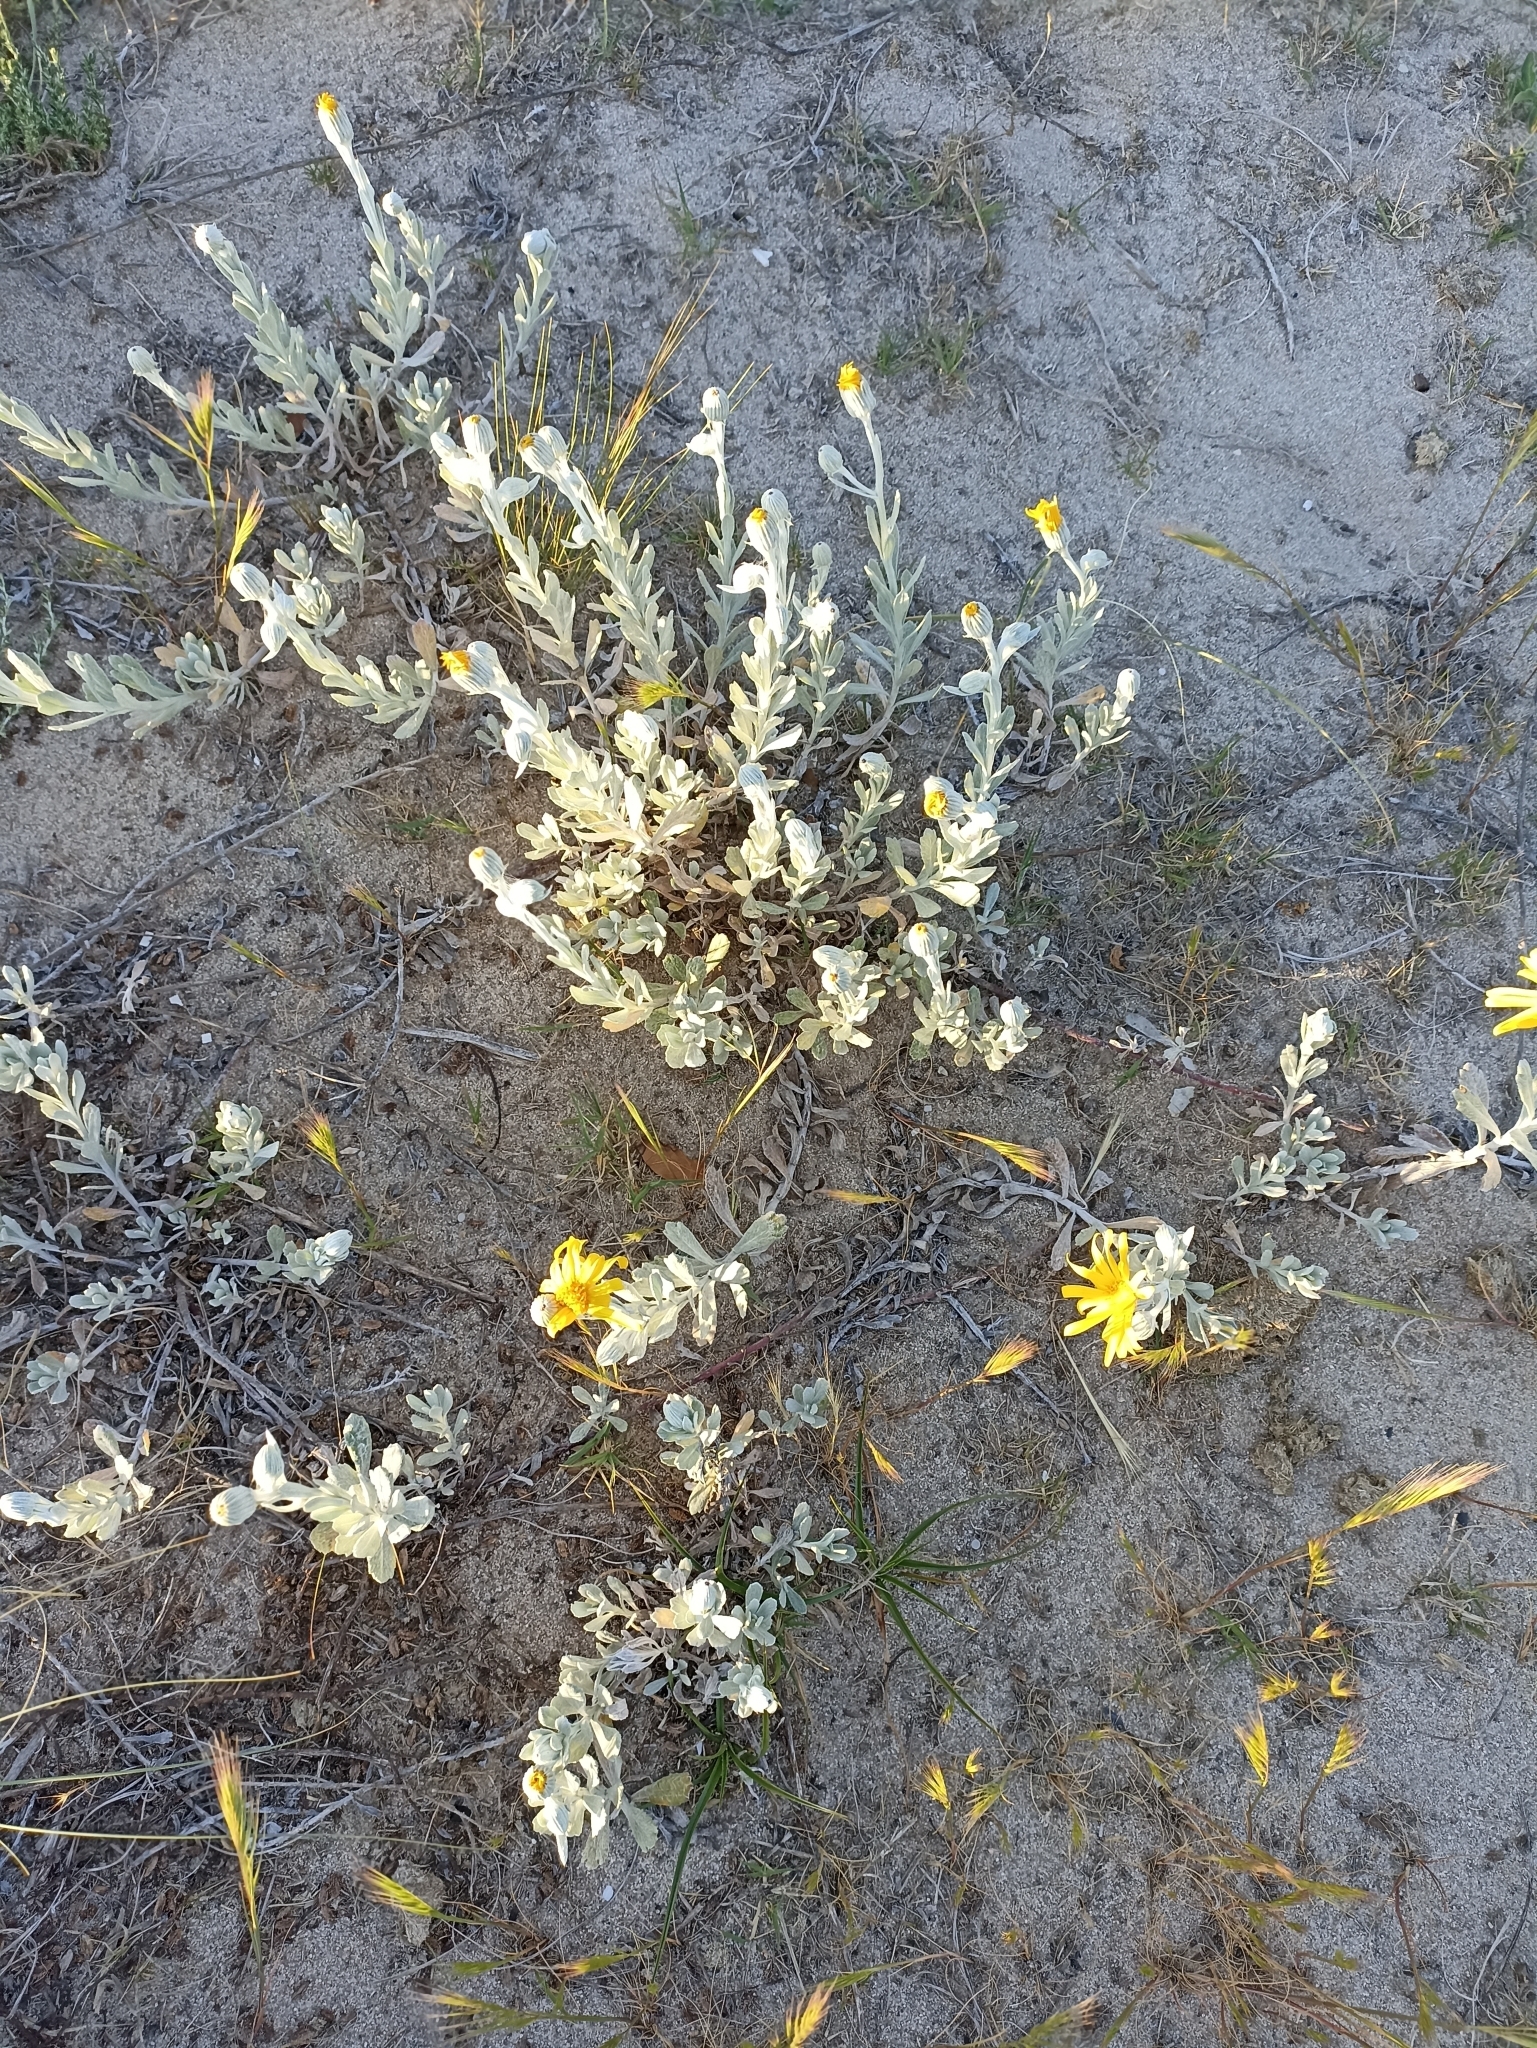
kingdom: Plantae
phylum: Tracheophyta
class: Magnoliopsida
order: Asterales
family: Asteraceae
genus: Senecio
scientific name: Senecio crassiflorus
